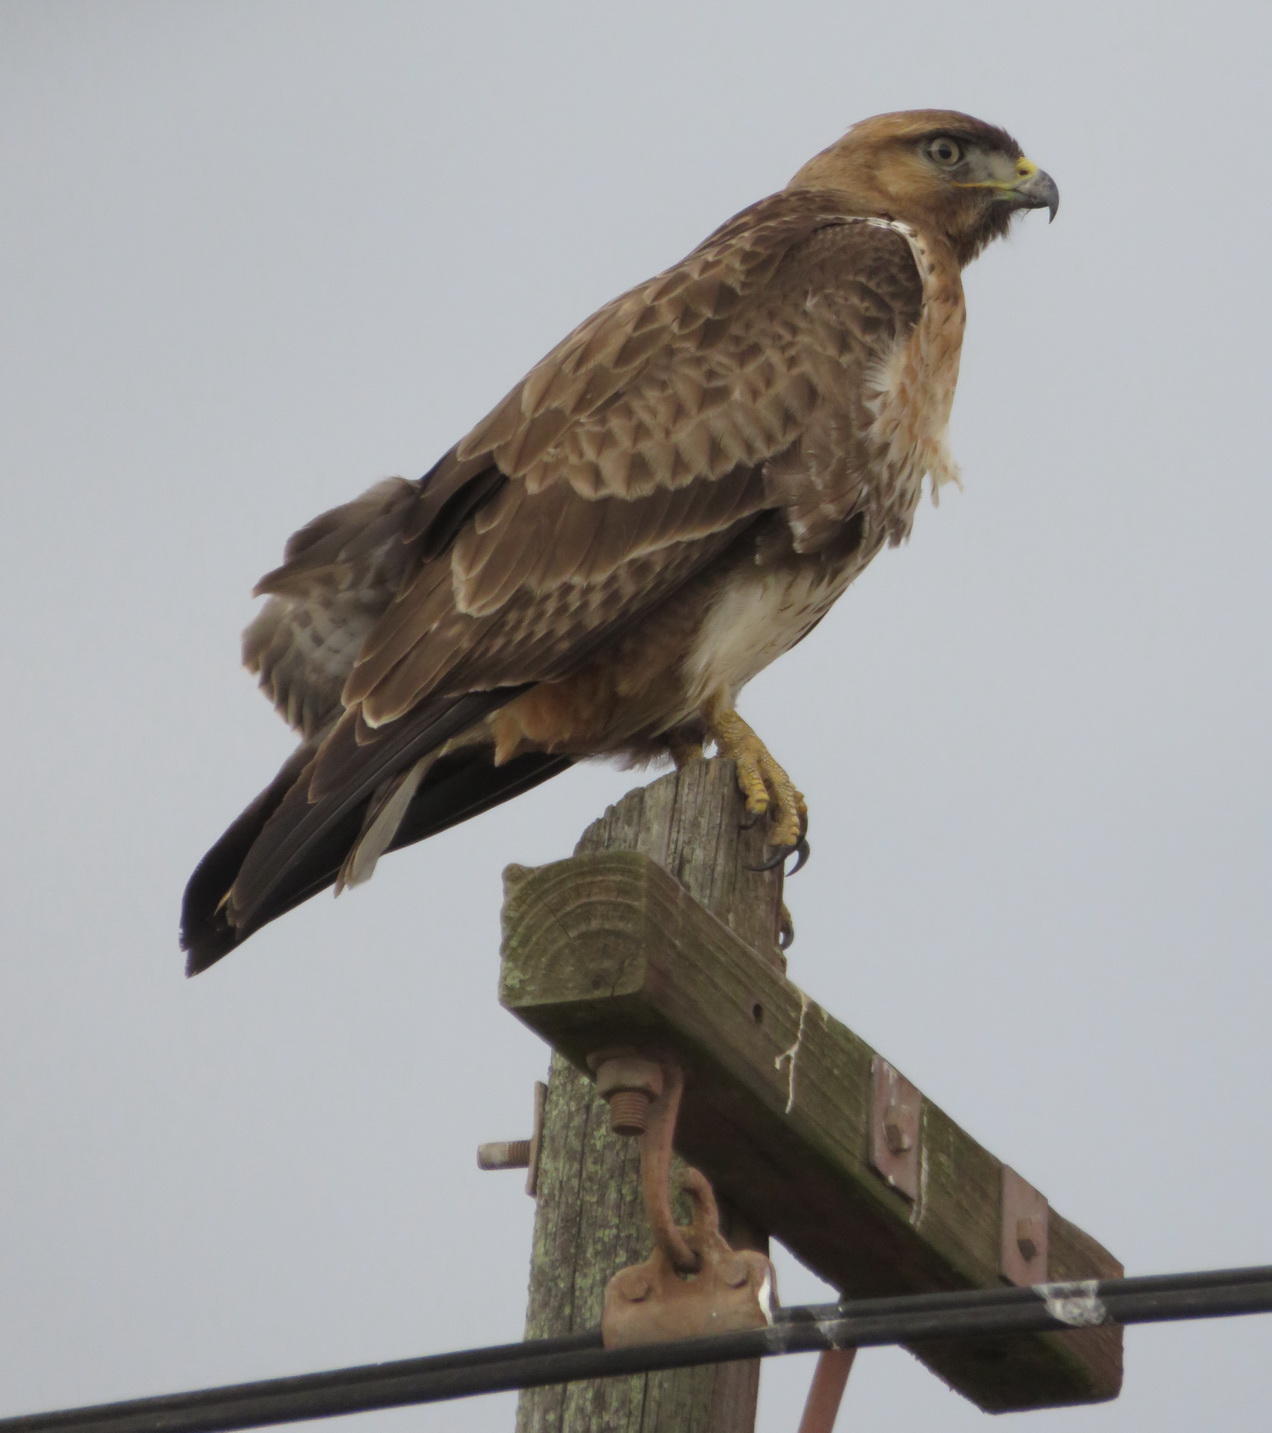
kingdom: Animalia
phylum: Chordata
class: Aves
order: Accipitriformes
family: Accipitridae
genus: Buteo
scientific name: Buteo rufofuscus
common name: Jackal buzzard
